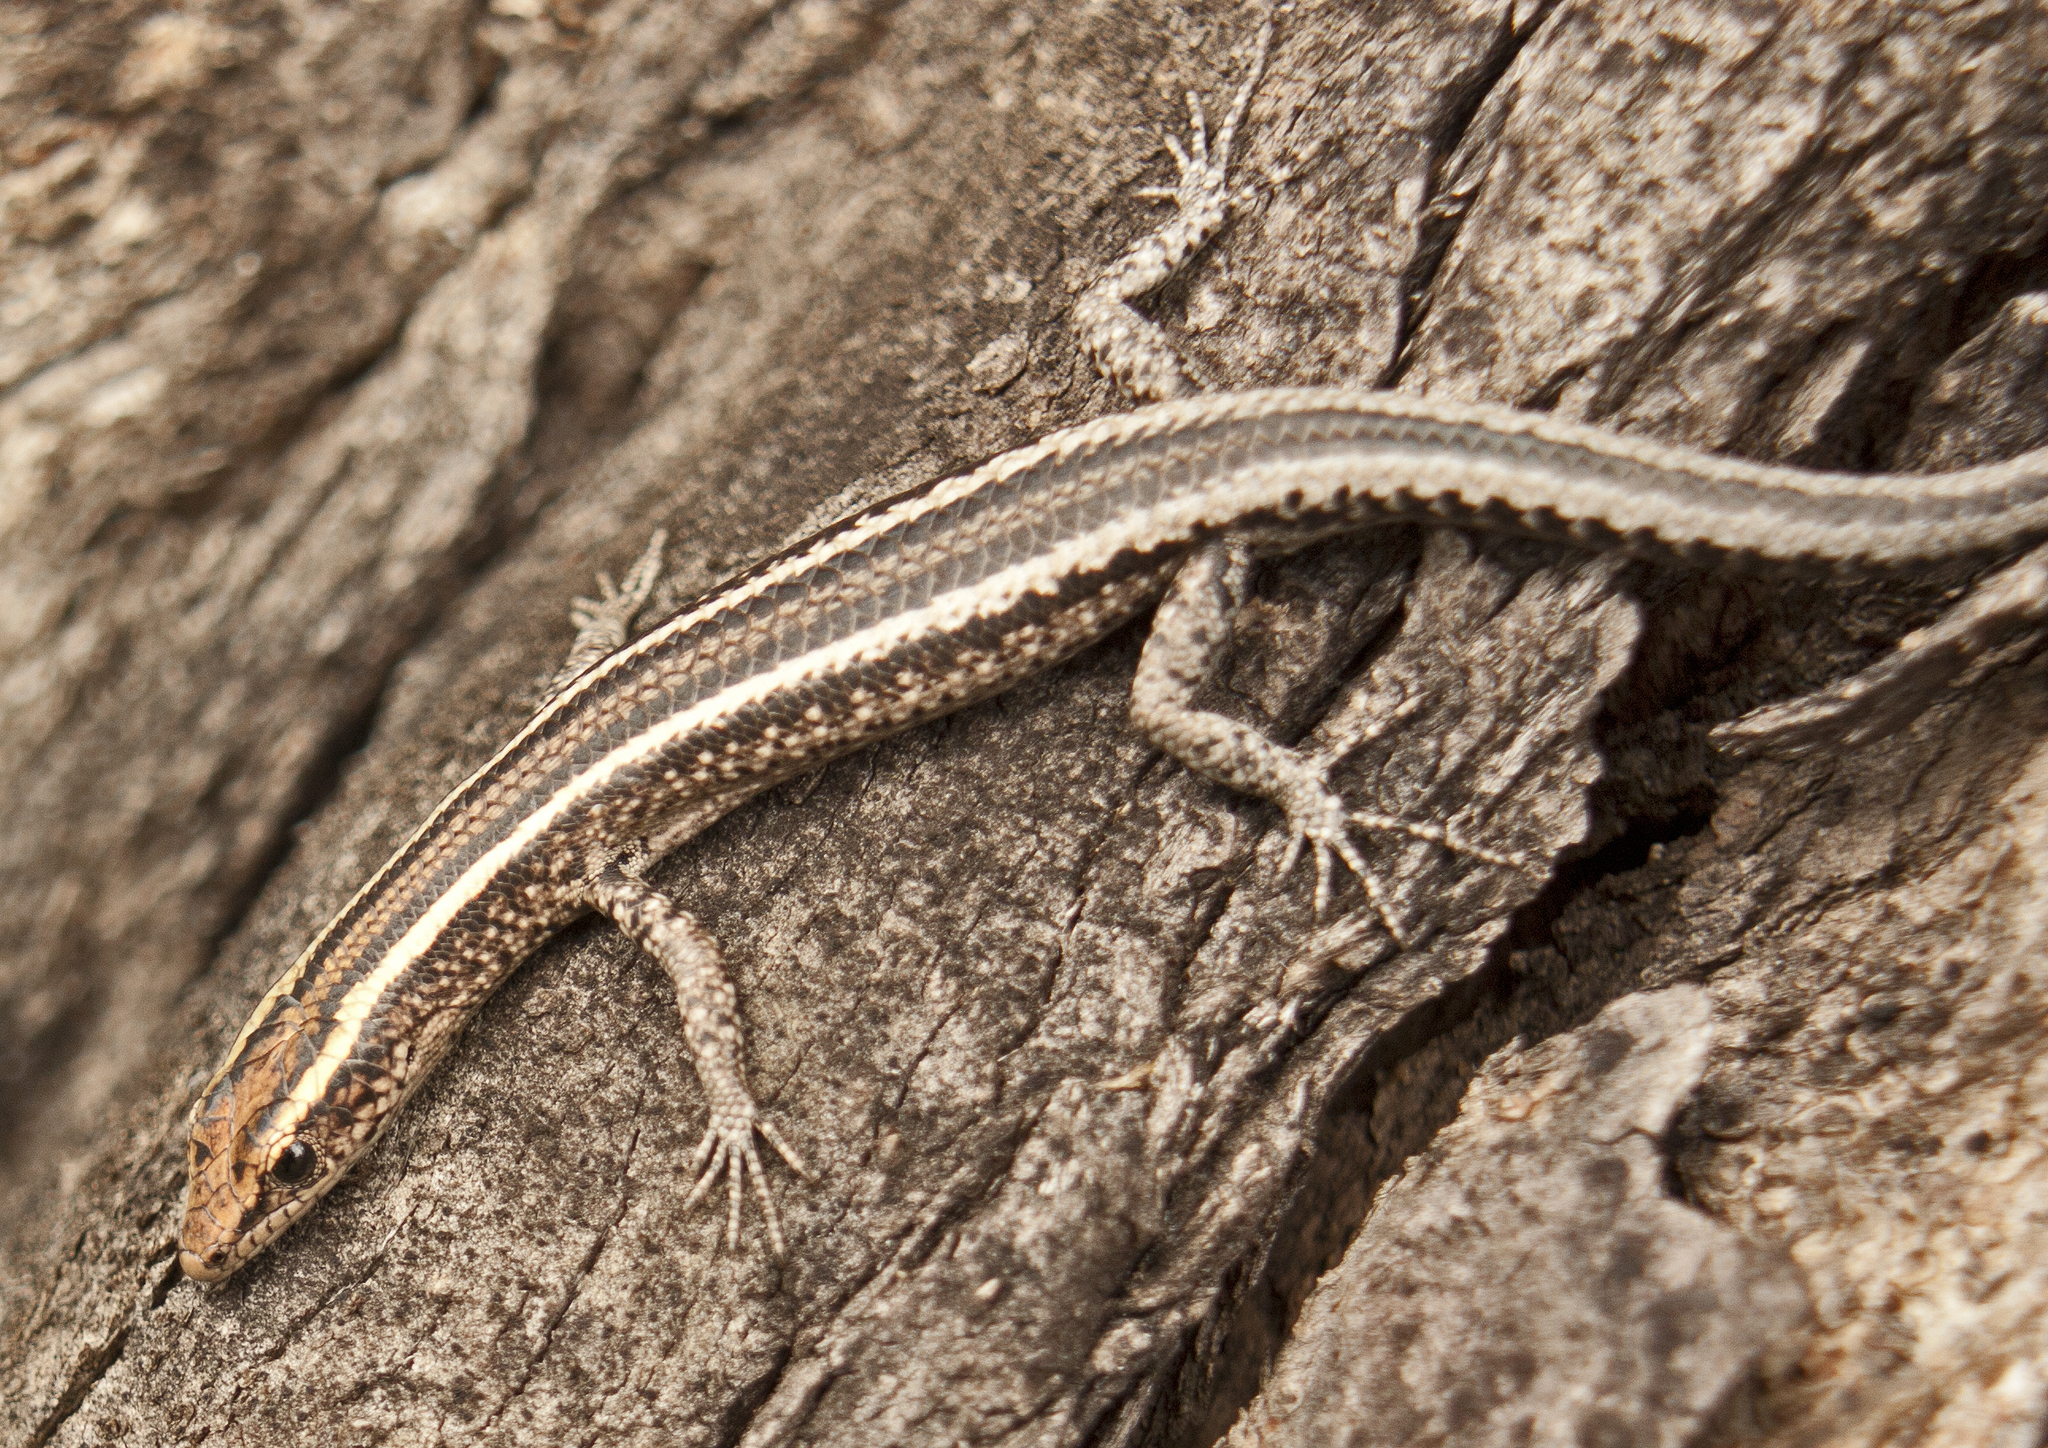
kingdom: Animalia
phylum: Chordata
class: Squamata
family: Scincidae
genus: Cryptoblepharus
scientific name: Cryptoblepharus pulcher
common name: Elegant snake-eyed skink
